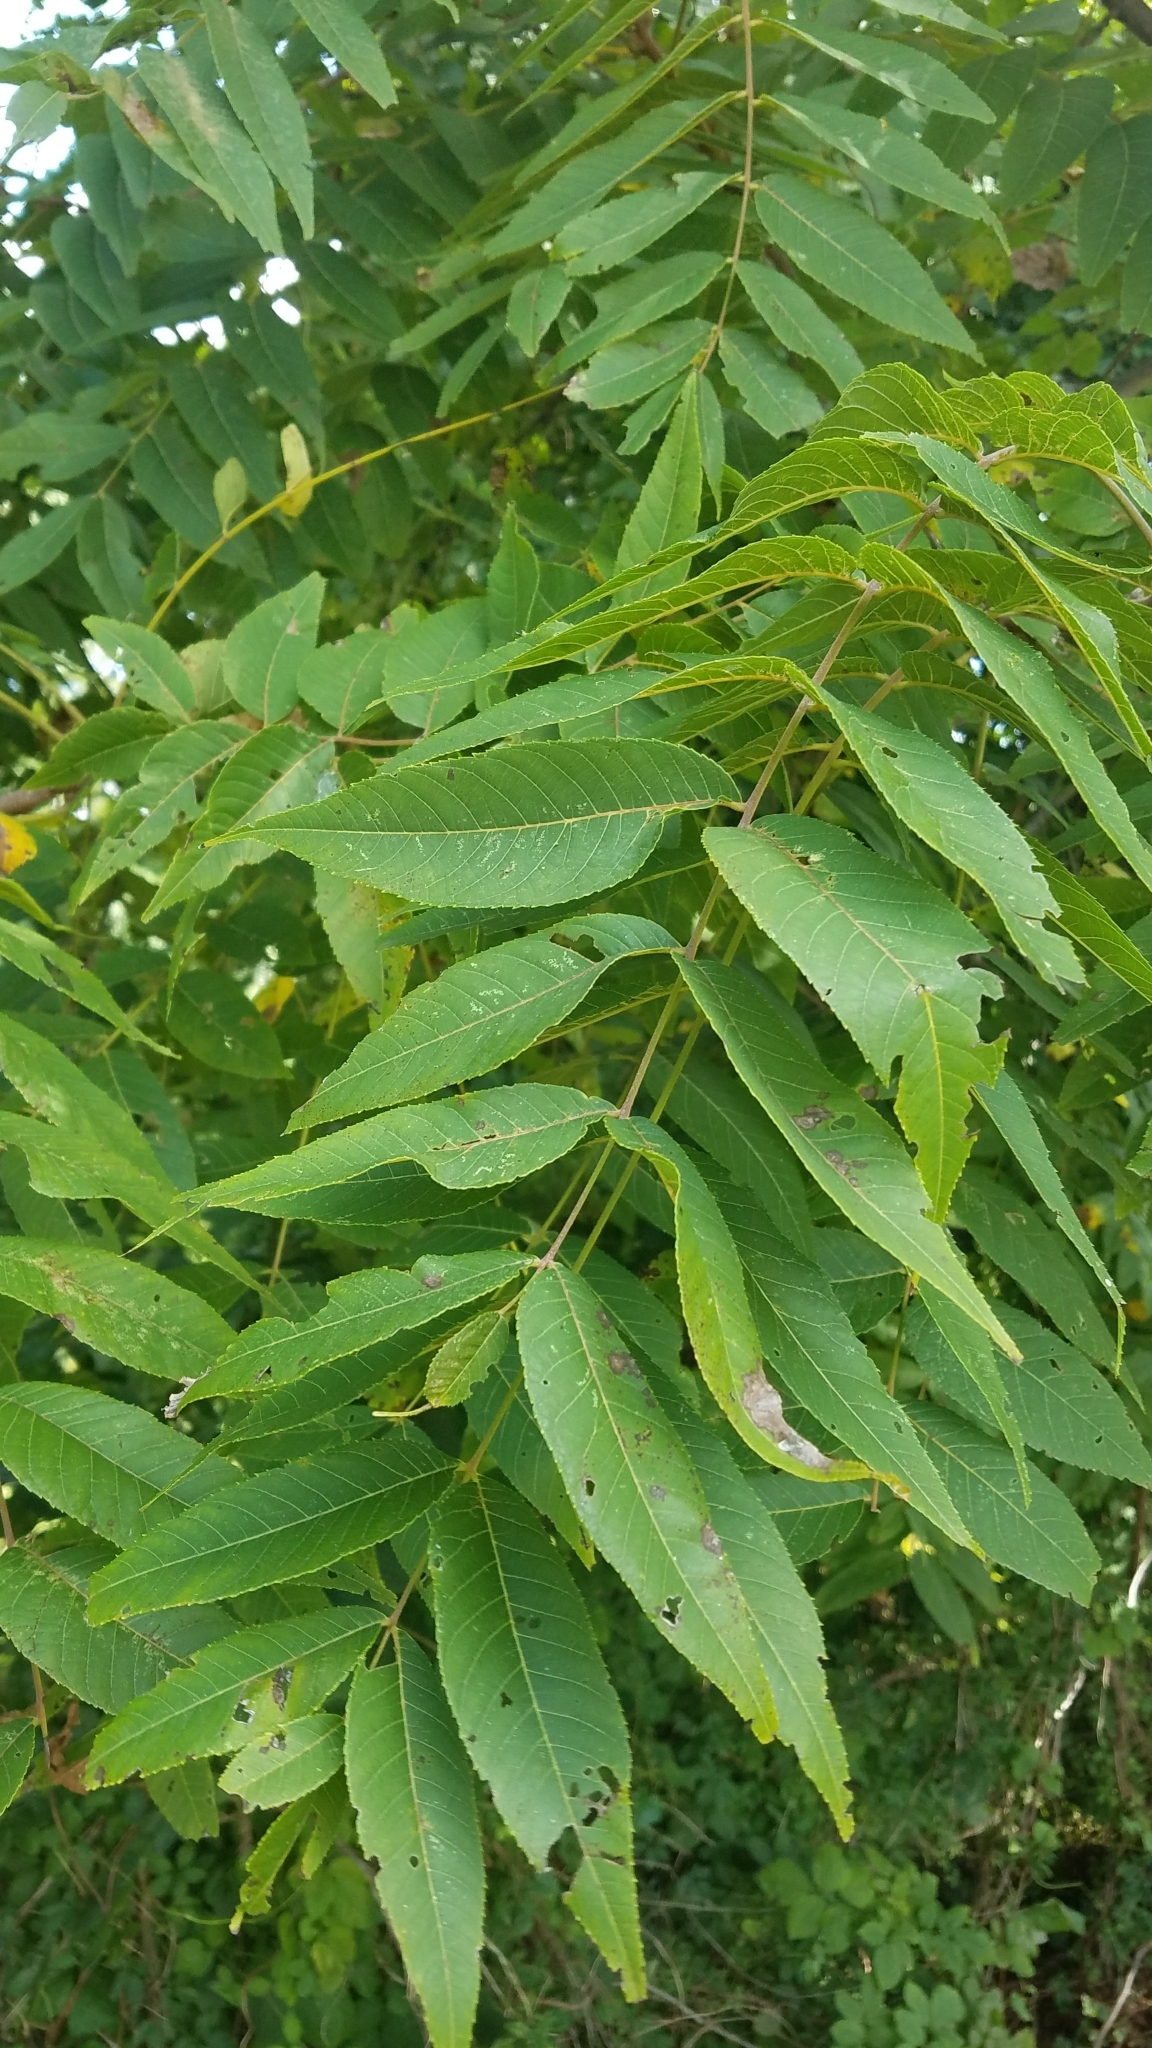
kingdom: Plantae
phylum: Tracheophyta
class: Magnoliopsida
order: Fagales
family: Juglandaceae
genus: Juglans
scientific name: Juglans nigra
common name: Black walnut
